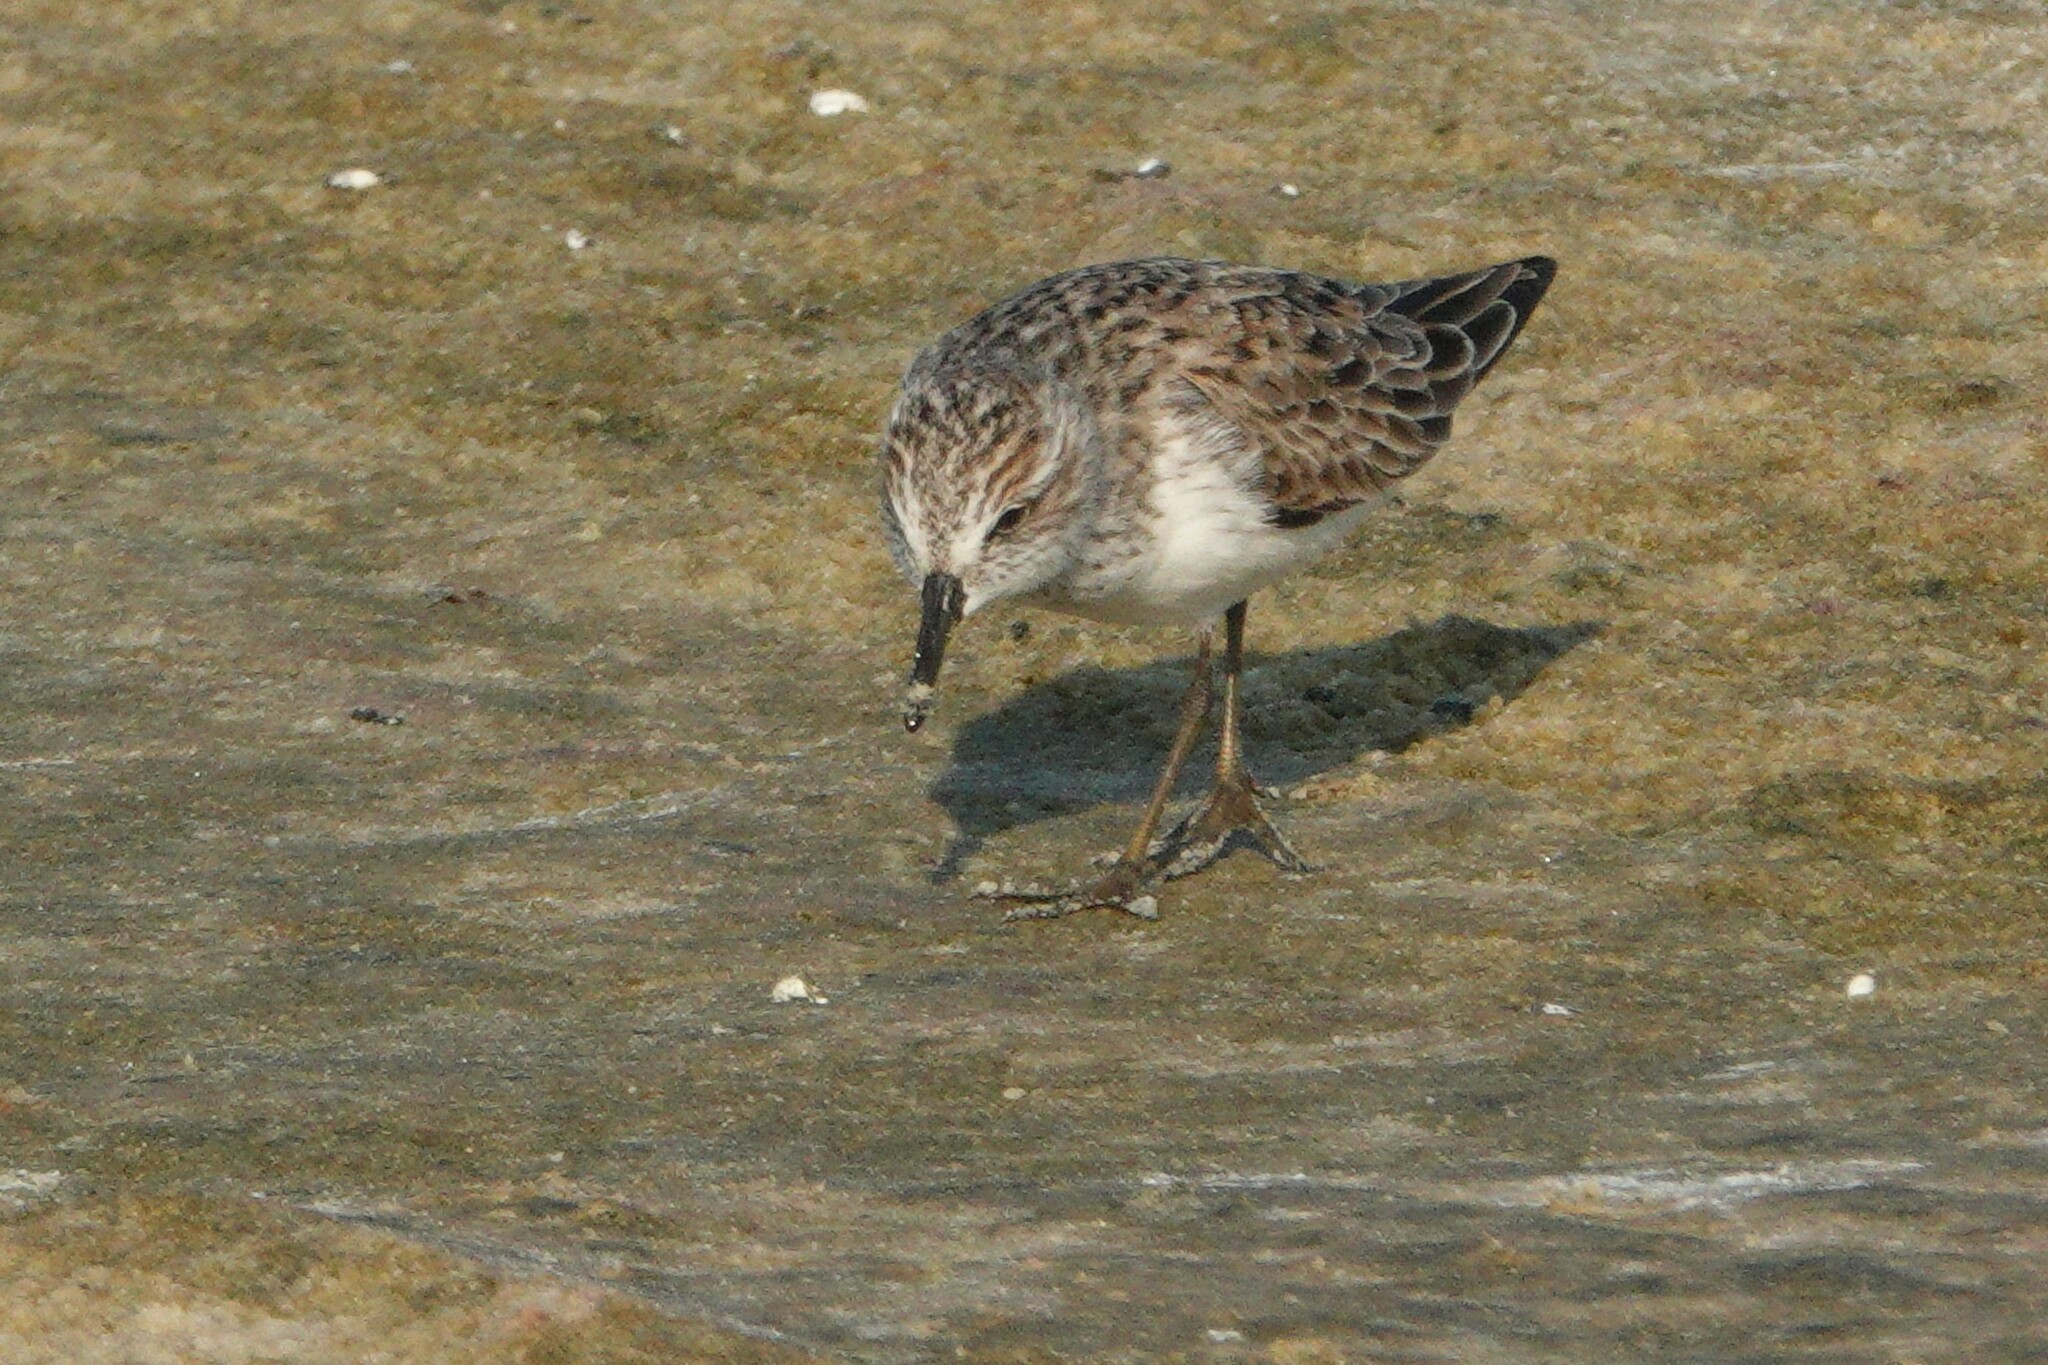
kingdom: Animalia
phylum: Chordata
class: Aves
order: Charadriiformes
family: Scolopacidae
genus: Calidris
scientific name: Calidris minutilla
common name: Least sandpiper
